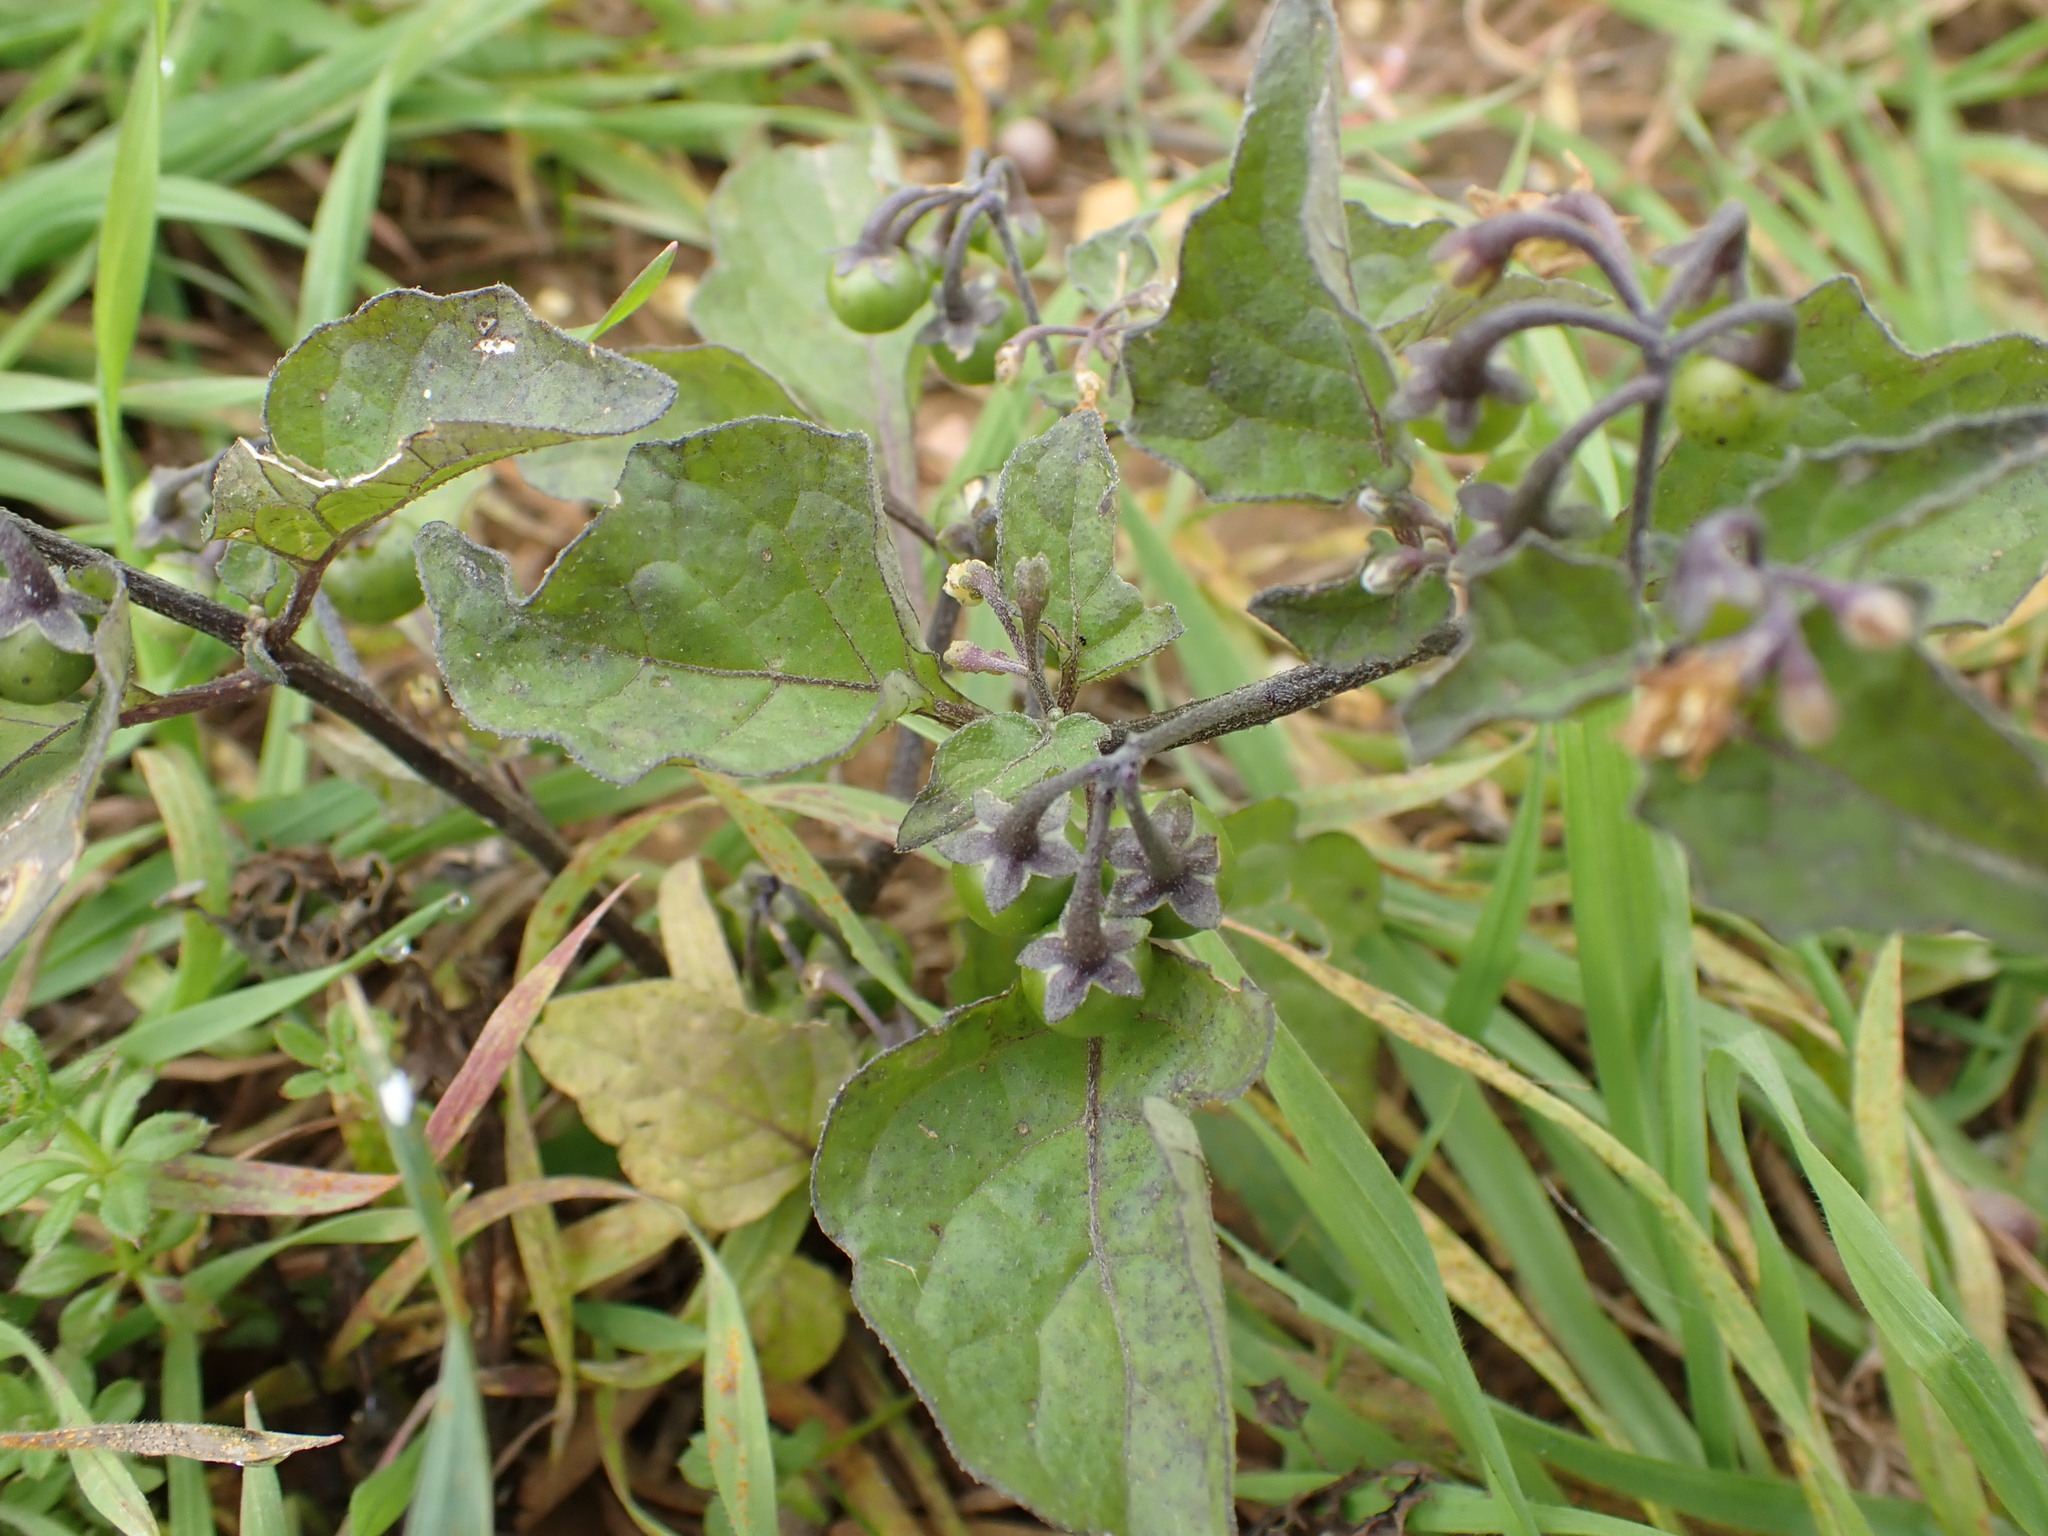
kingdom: Plantae
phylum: Tracheophyta
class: Magnoliopsida
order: Solanales
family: Solanaceae
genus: Solanum
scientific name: Solanum nigrum
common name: Black nightshade
